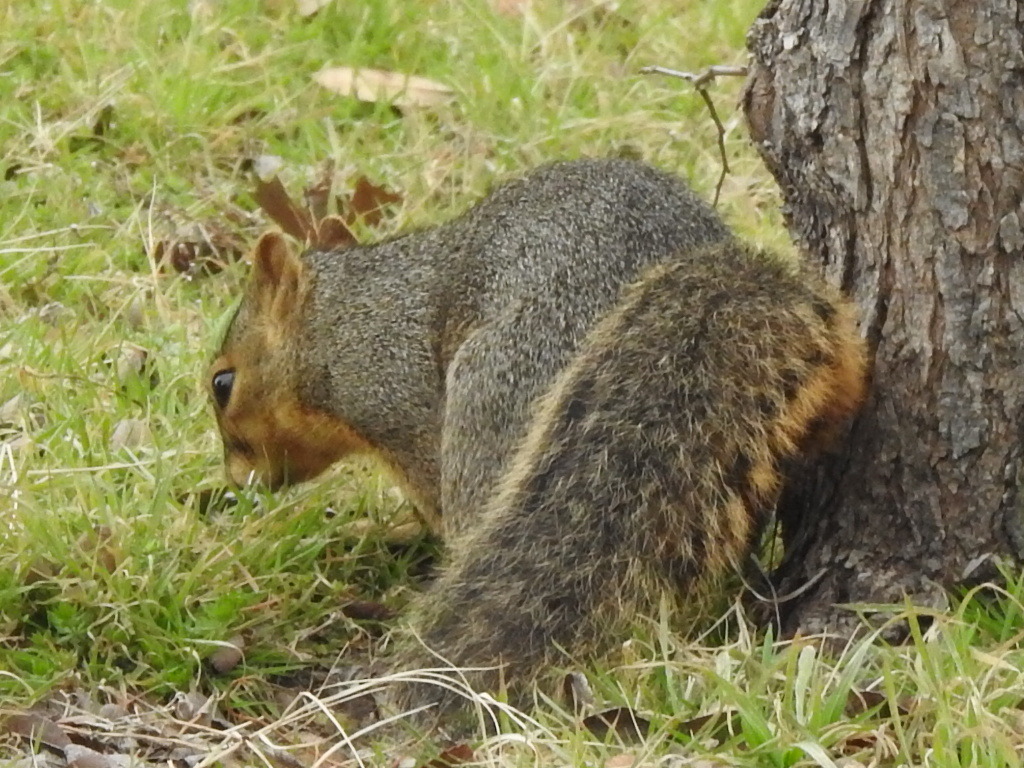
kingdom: Animalia
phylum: Chordata
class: Mammalia
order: Rodentia
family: Sciuridae
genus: Sciurus
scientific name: Sciurus niger
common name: Fox squirrel
